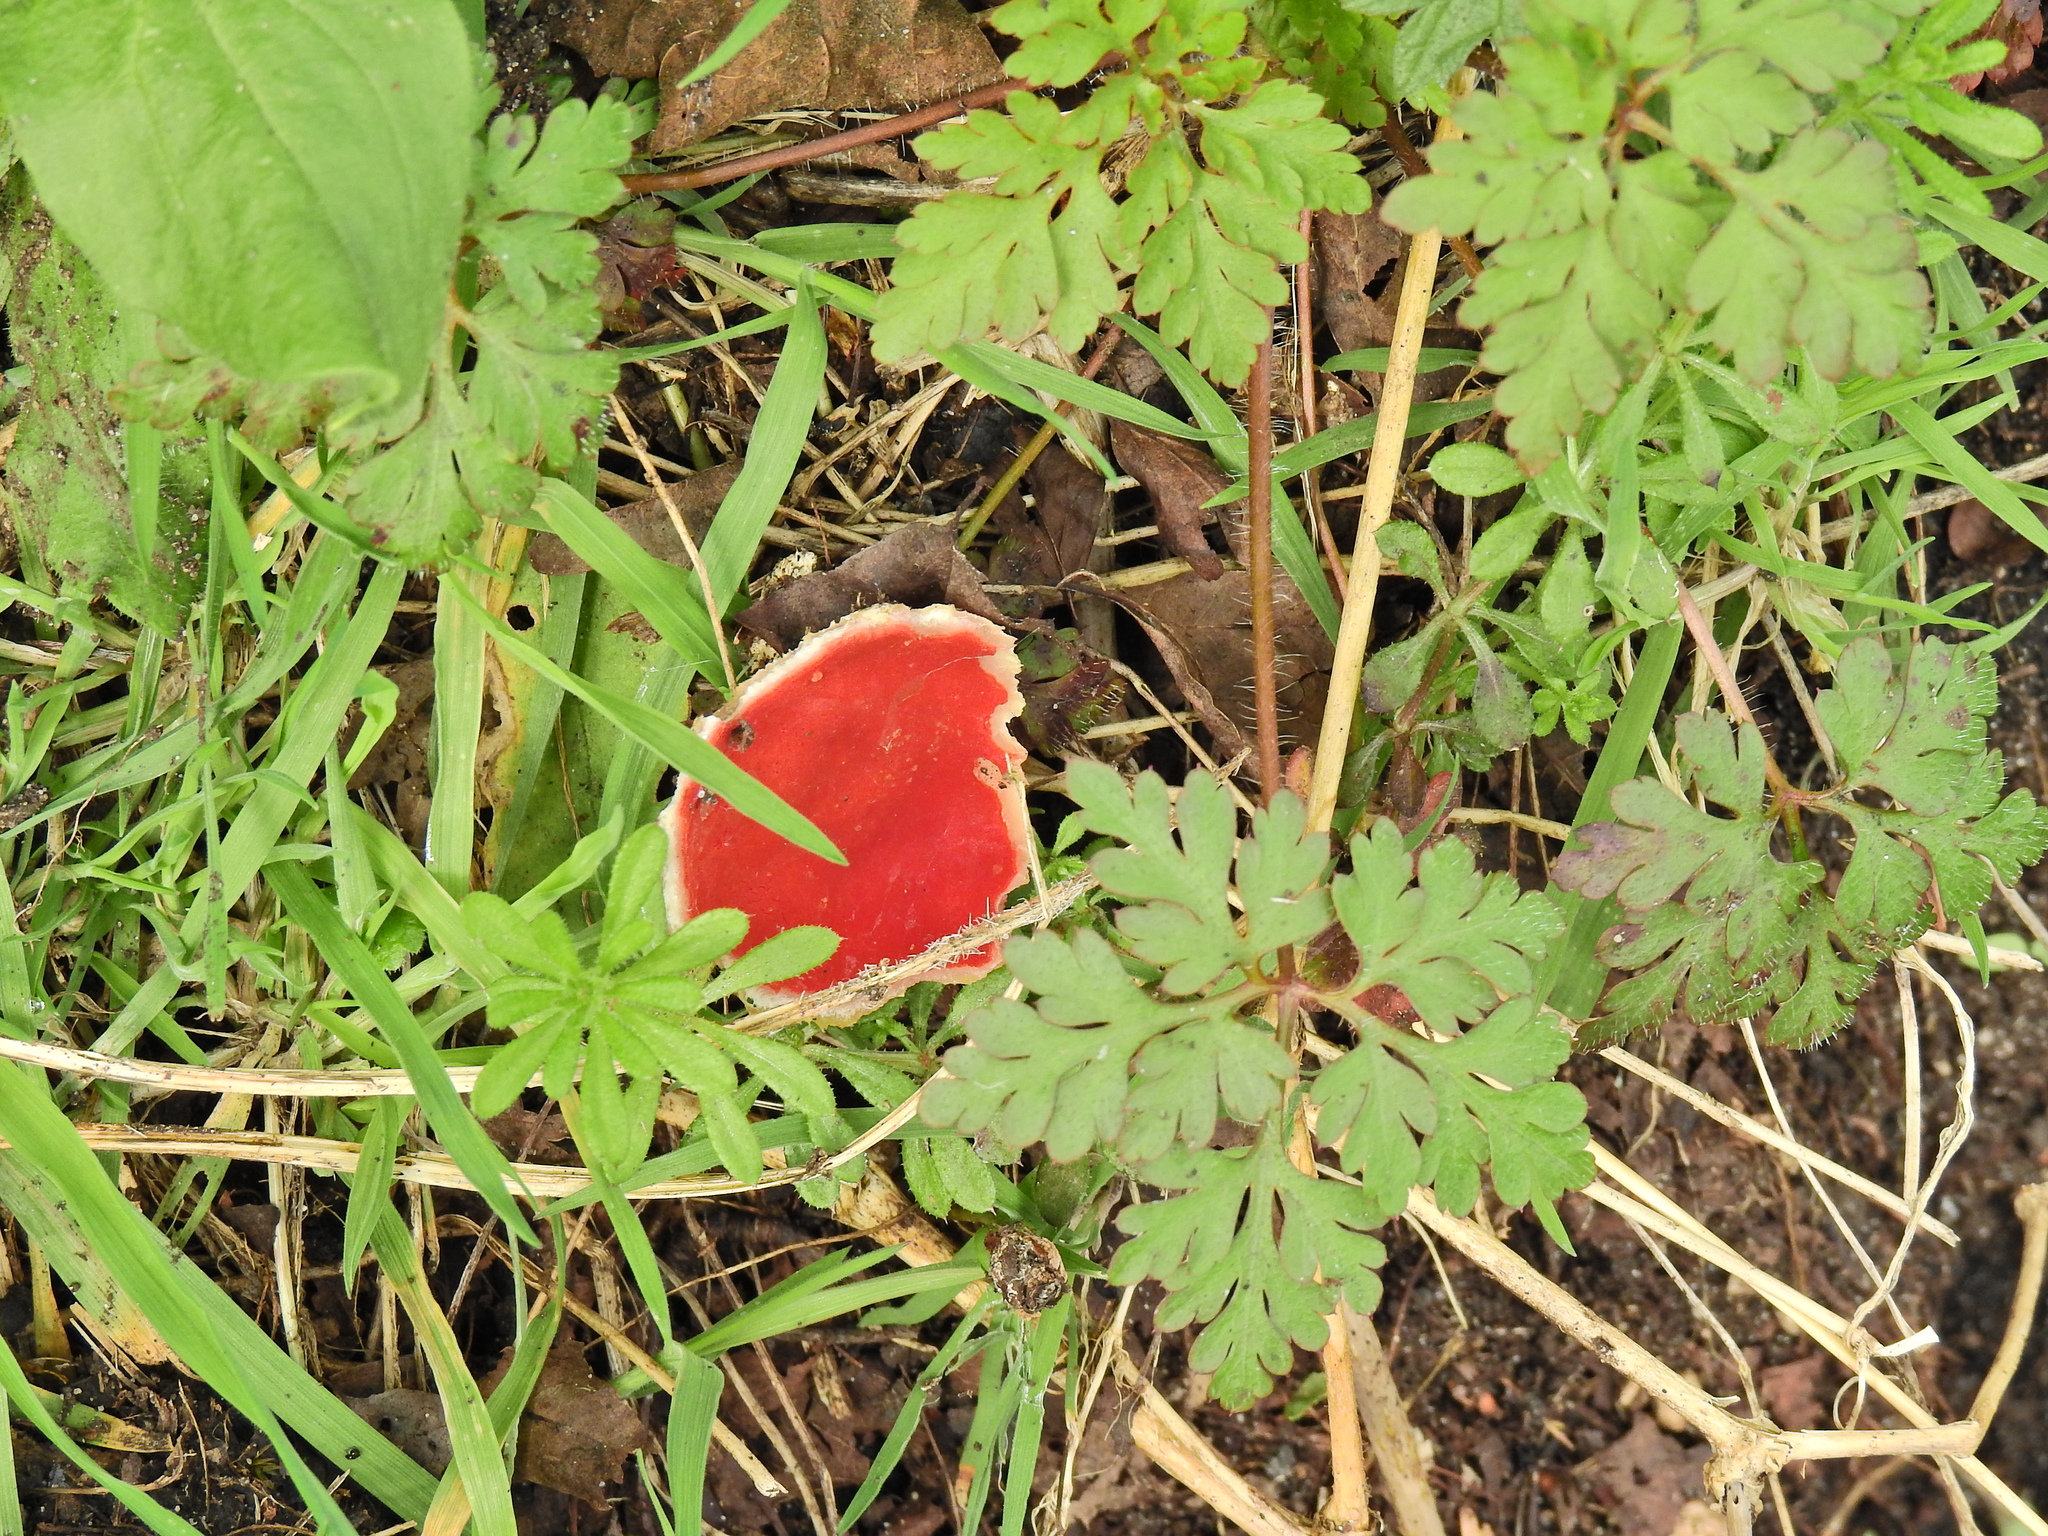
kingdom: Fungi
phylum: Ascomycota
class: Pezizomycetes
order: Pezizales
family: Sarcoscyphaceae
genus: Sarcoscypha
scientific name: Sarcoscypha
